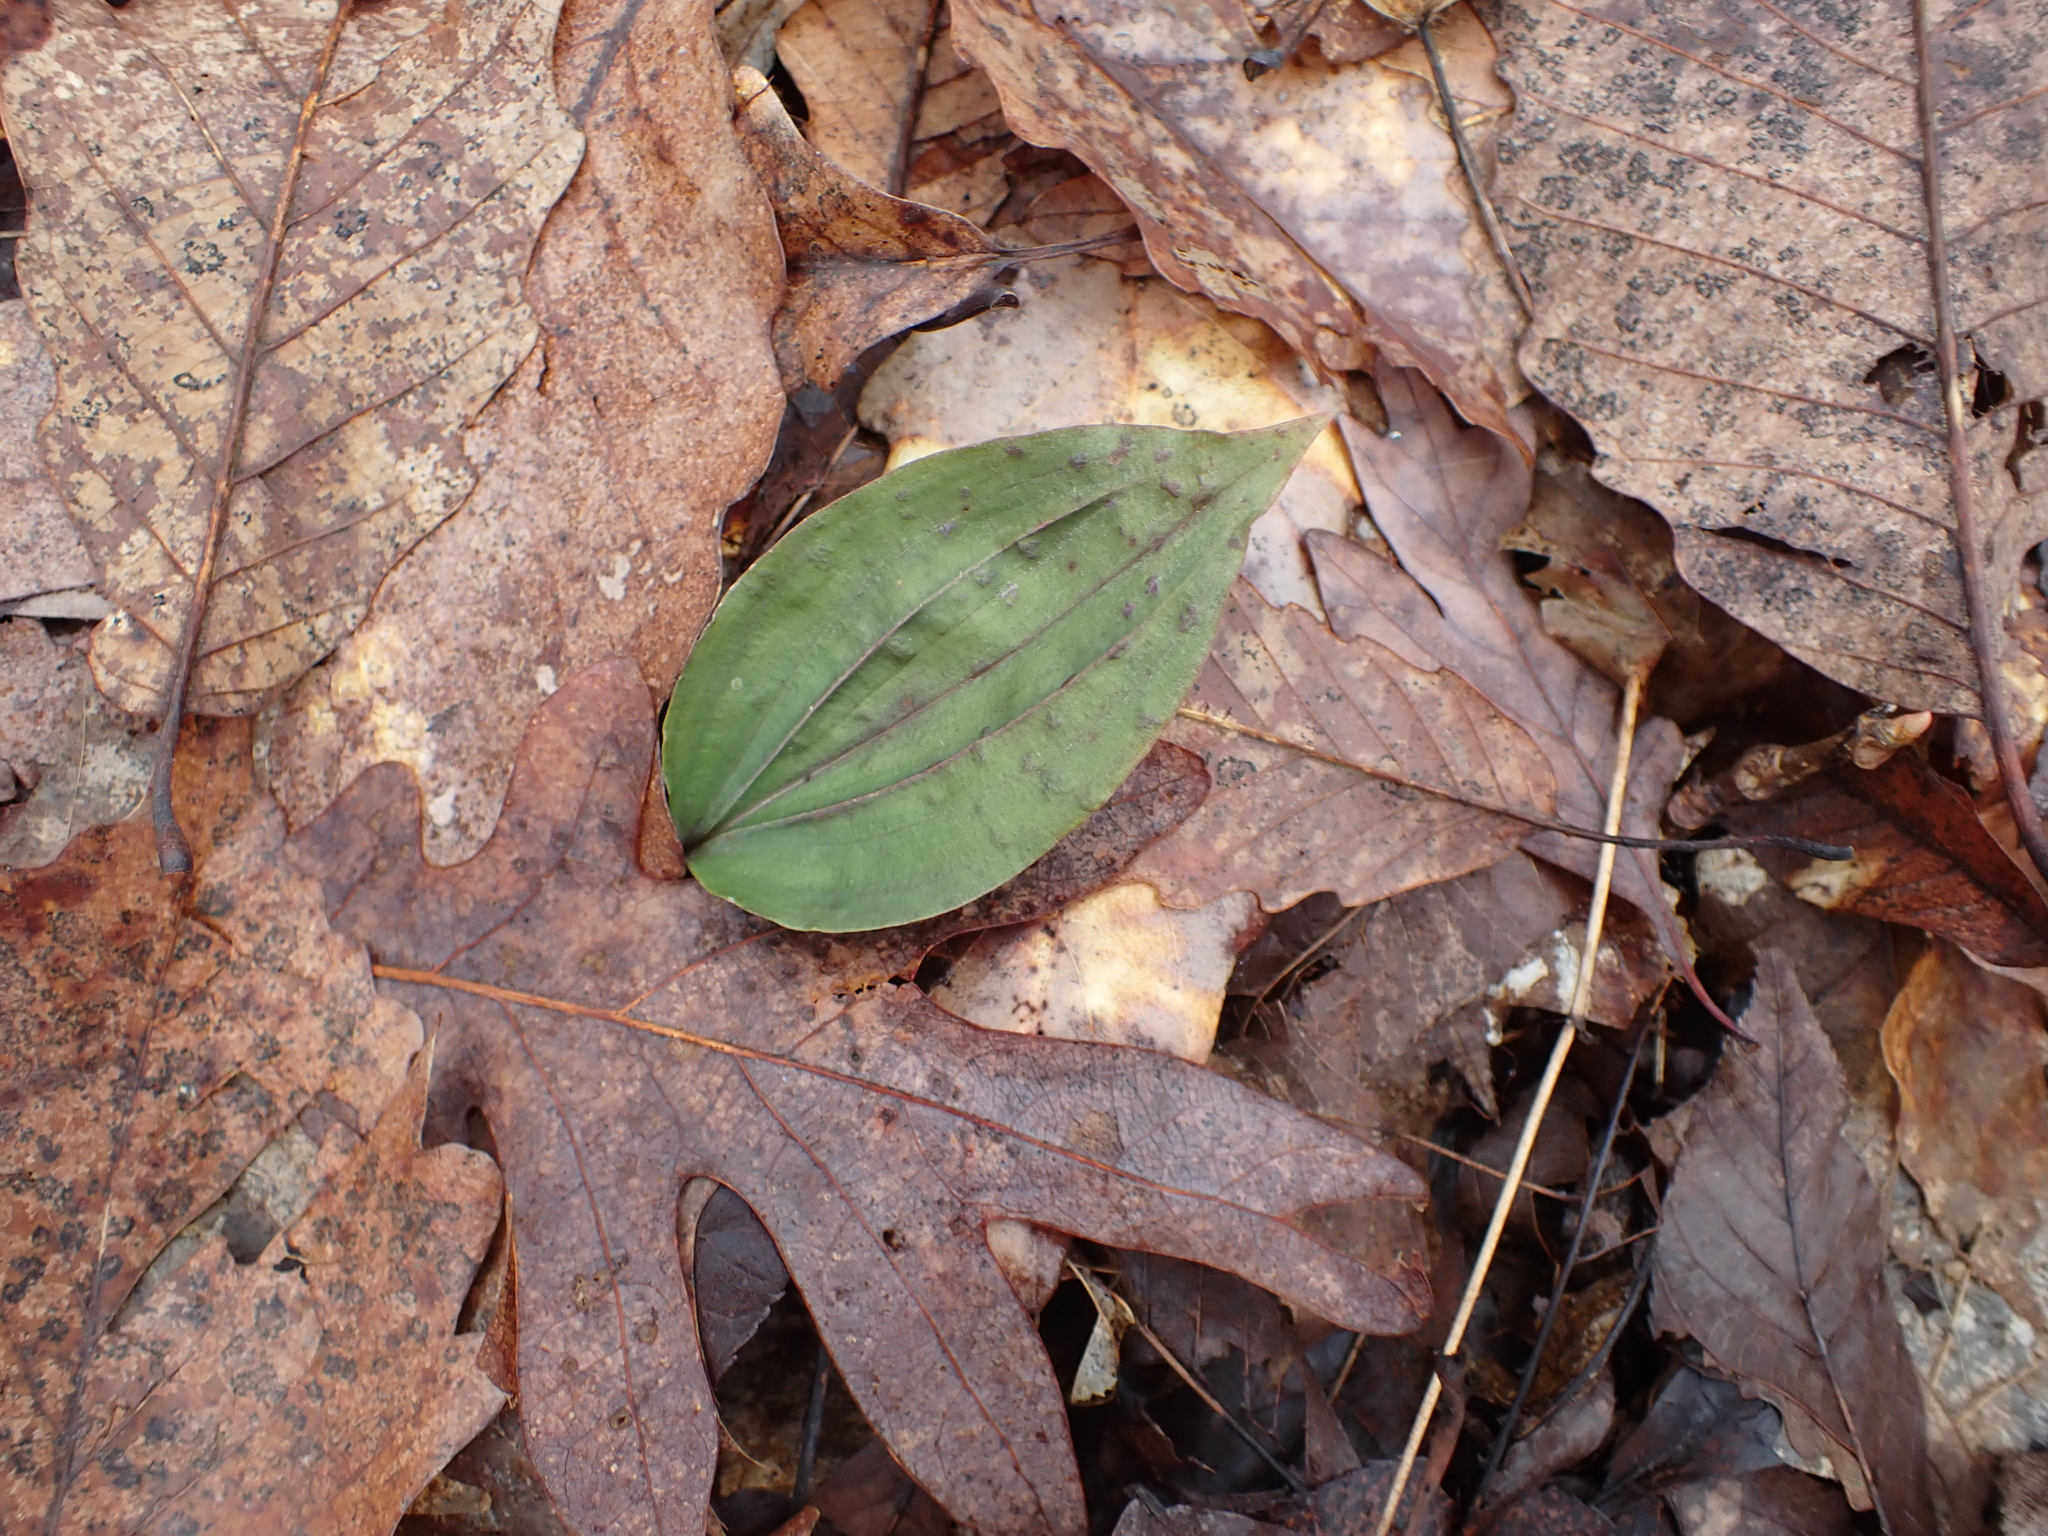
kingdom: Plantae
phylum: Tracheophyta
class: Liliopsida
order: Asparagales
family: Orchidaceae
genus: Tipularia
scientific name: Tipularia discolor
